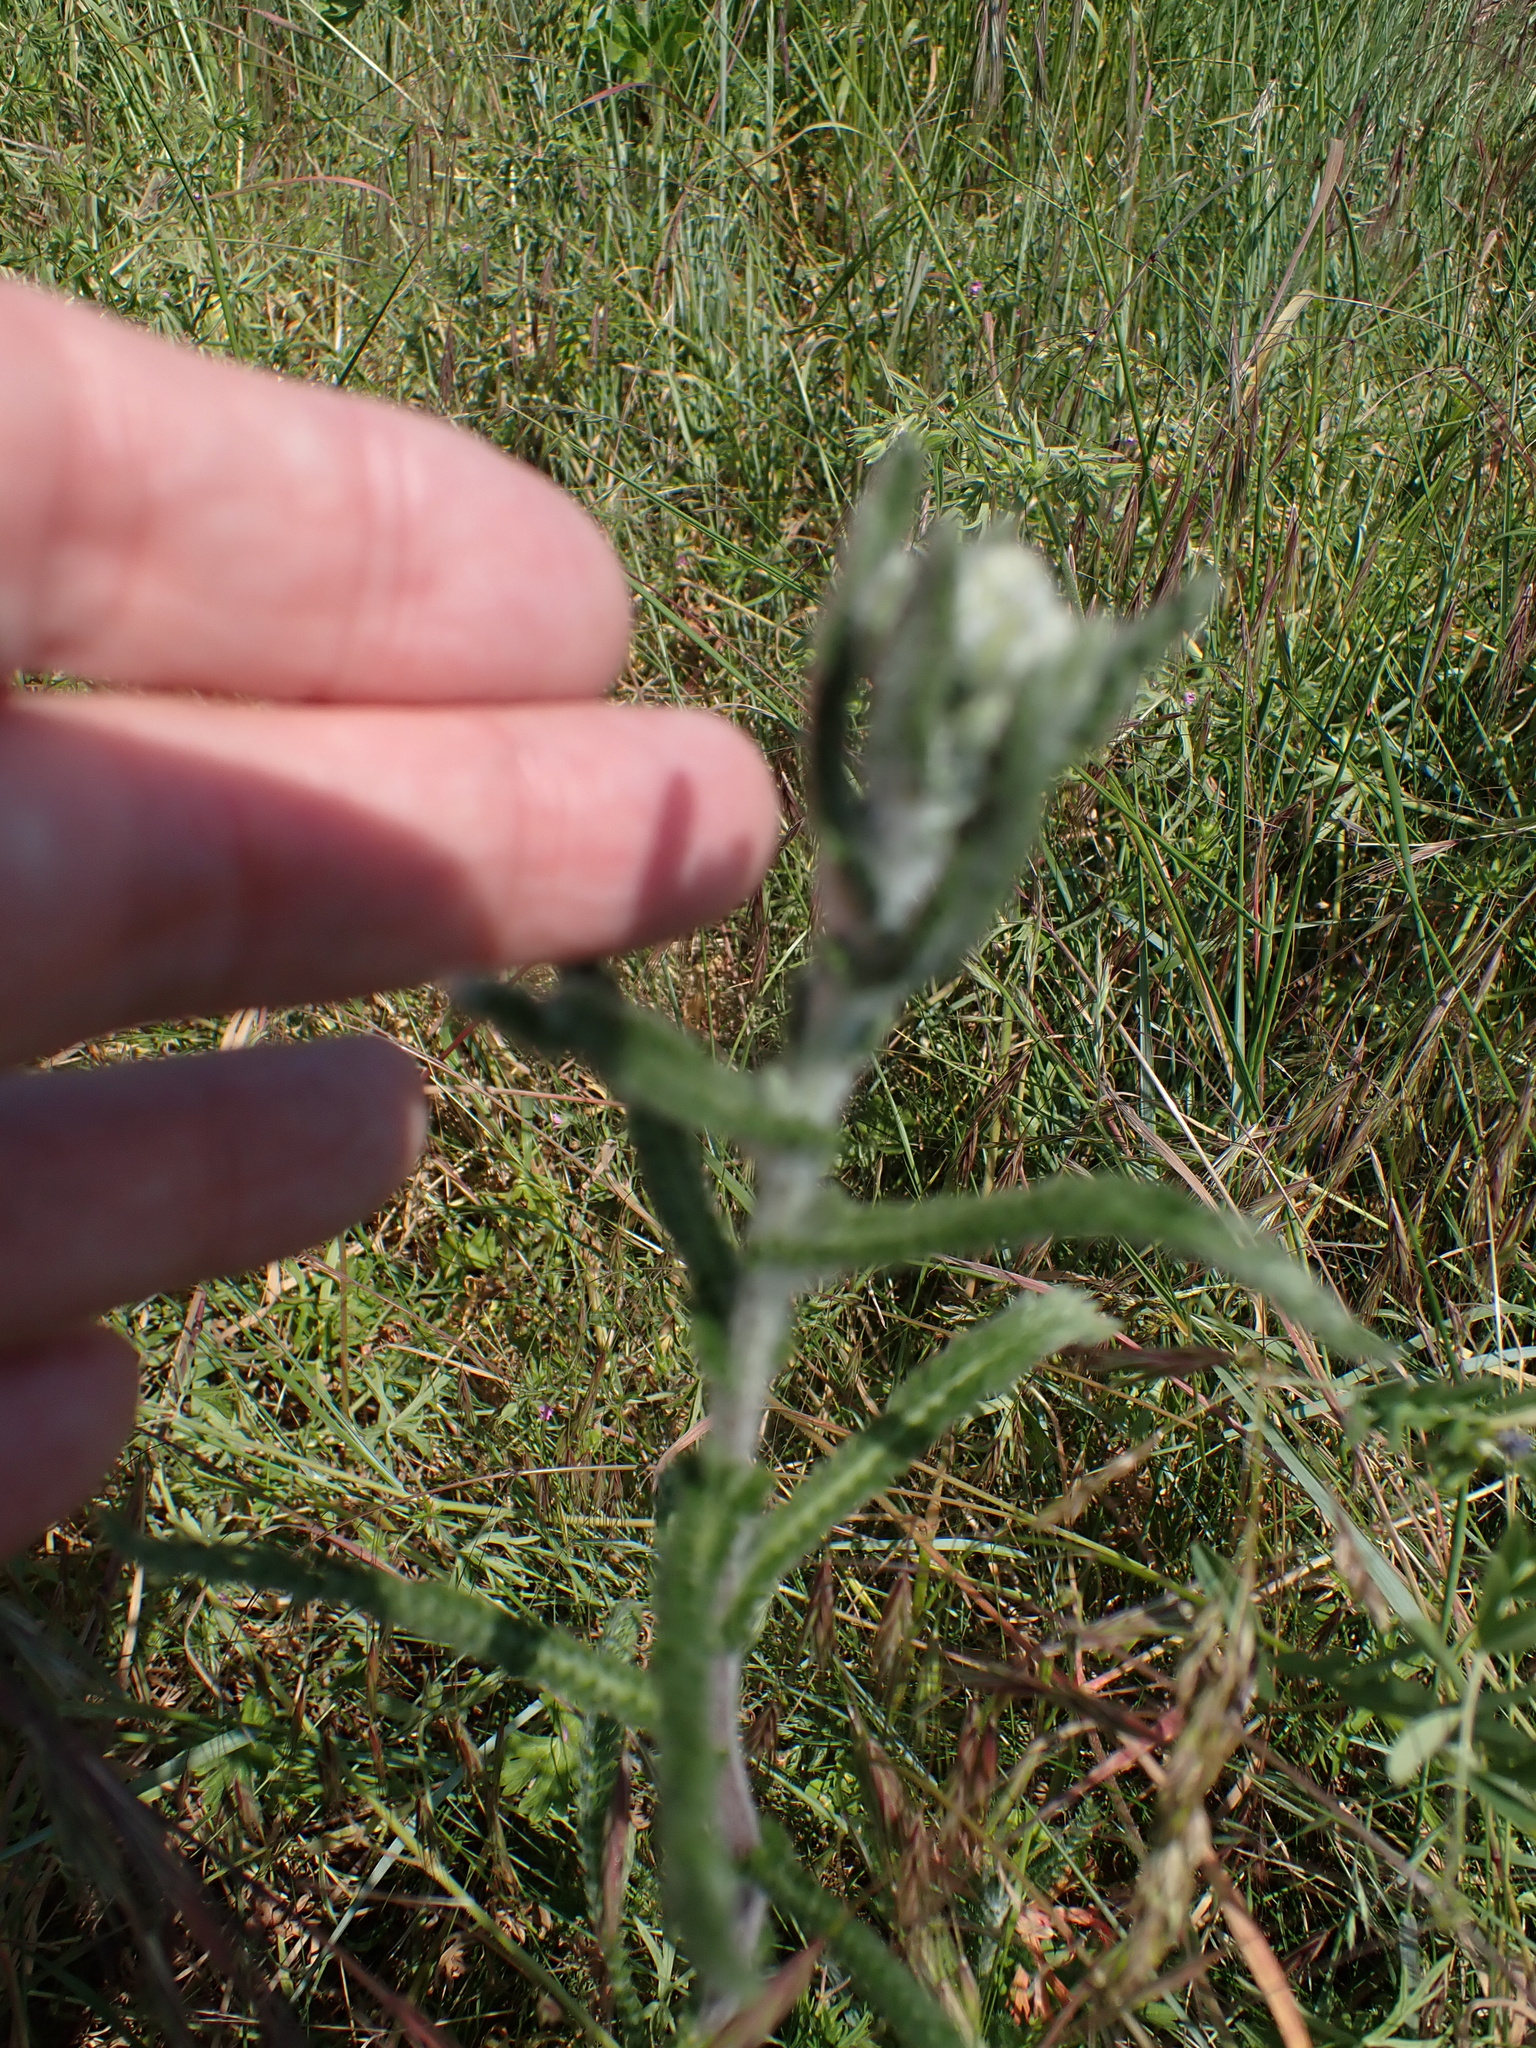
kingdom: Plantae
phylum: Tracheophyta
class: Magnoliopsida
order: Asterales
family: Asteraceae
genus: Achillea
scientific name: Achillea millefolium
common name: Yarrow
